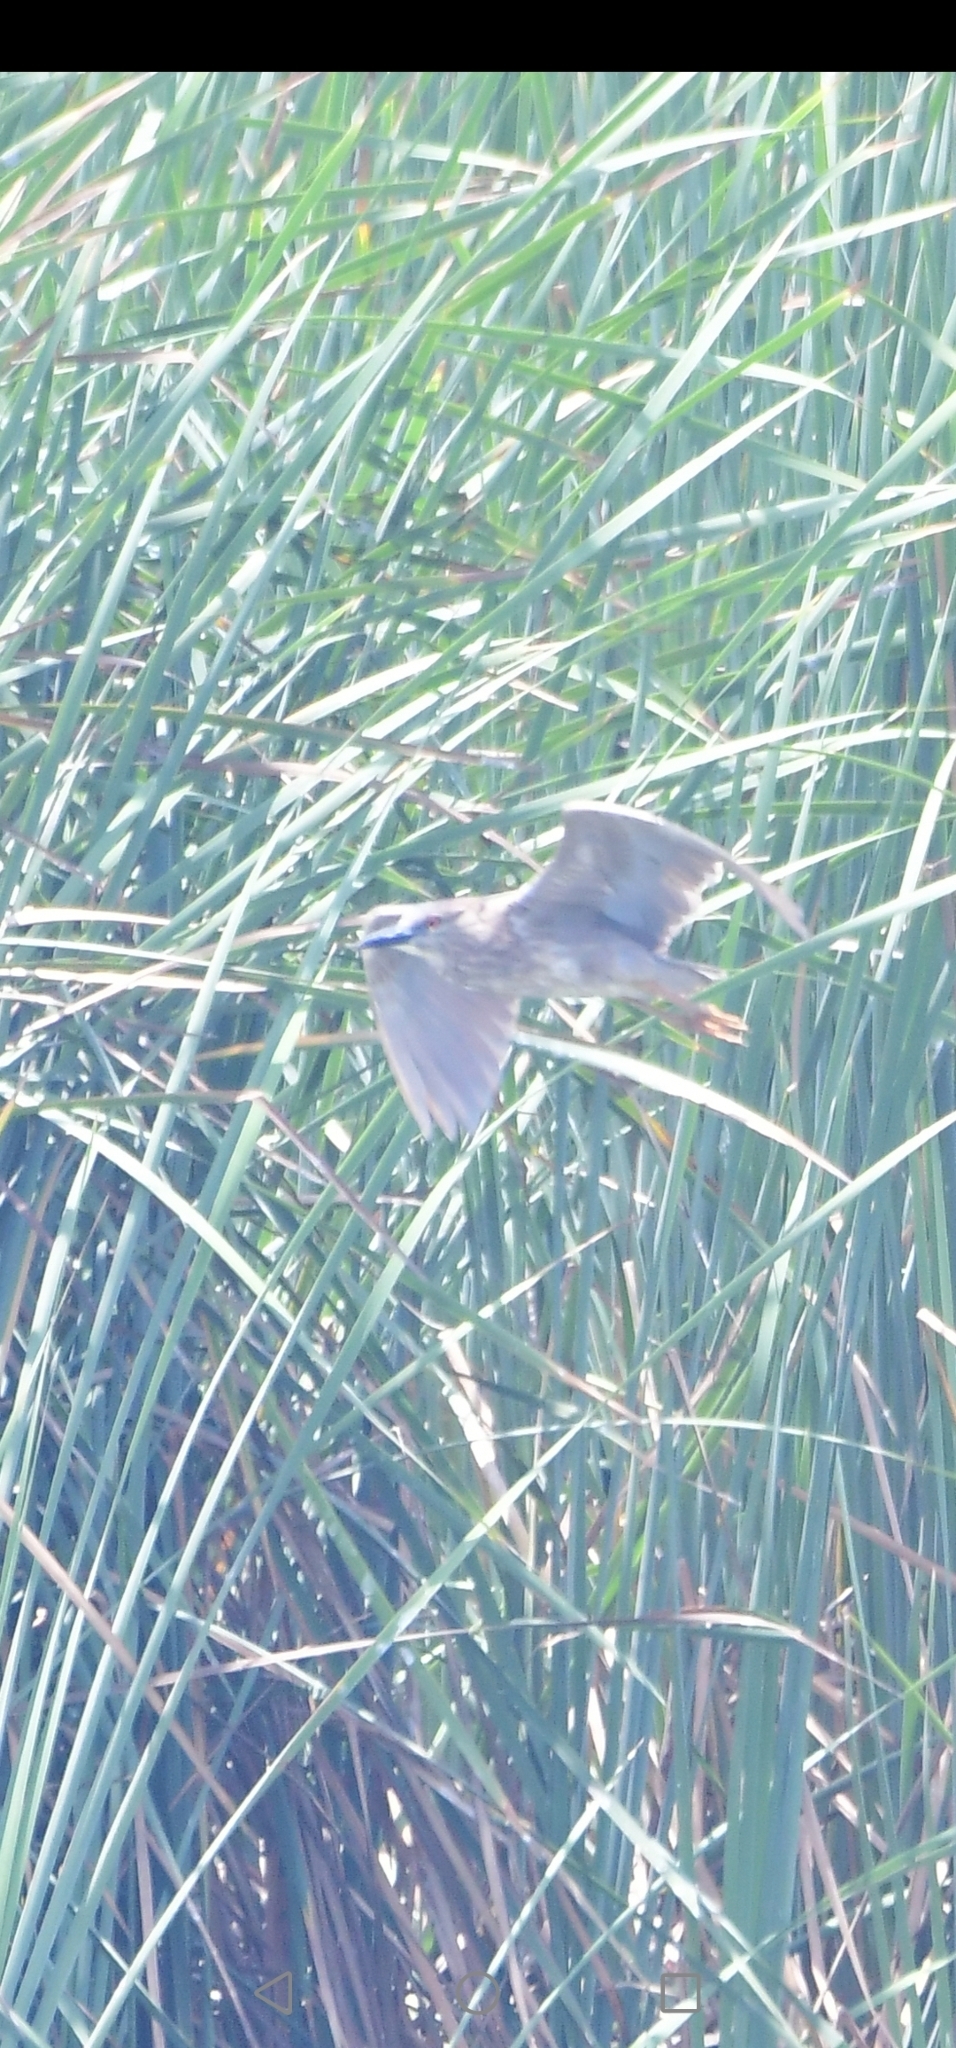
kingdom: Animalia
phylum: Chordata
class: Aves
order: Pelecaniformes
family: Ardeidae
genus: Nycticorax
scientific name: Nycticorax nycticorax
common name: Black-crowned night heron
